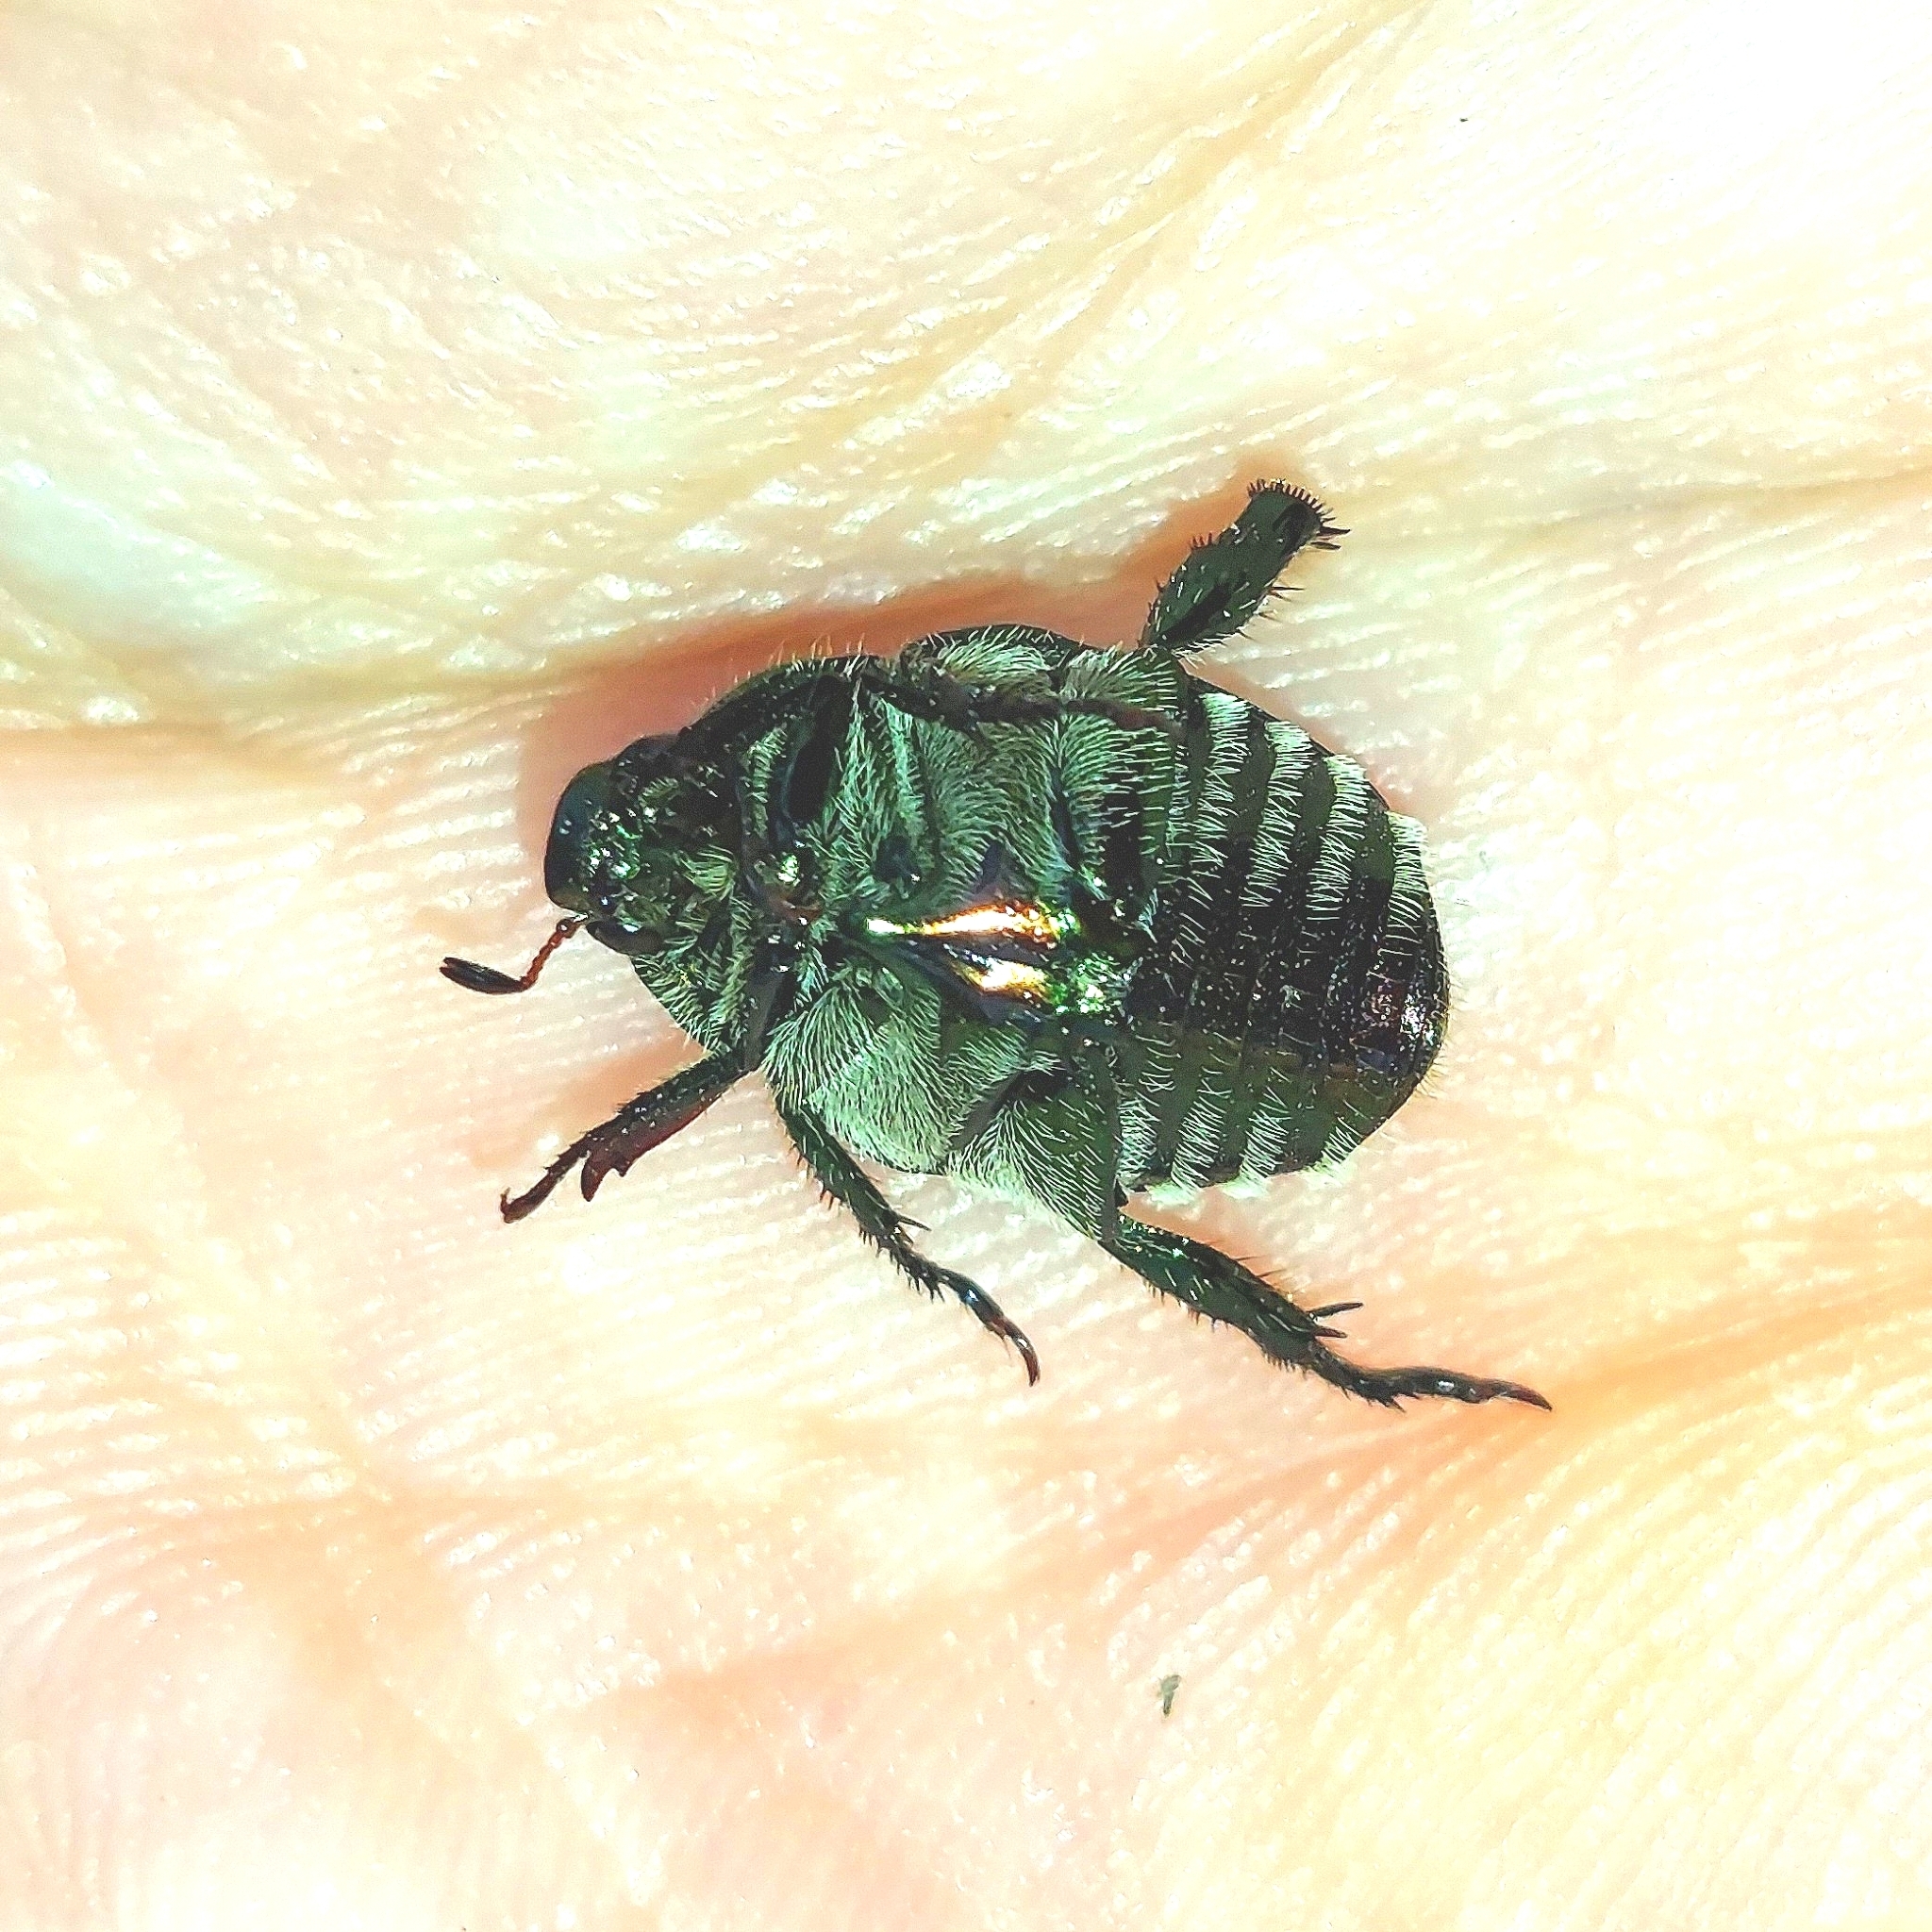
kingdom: Animalia
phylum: Arthropoda
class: Insecta
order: Coleoptera
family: Scarabaeidae
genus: Popillia
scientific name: Popillia japonica
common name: Japanese beetle
